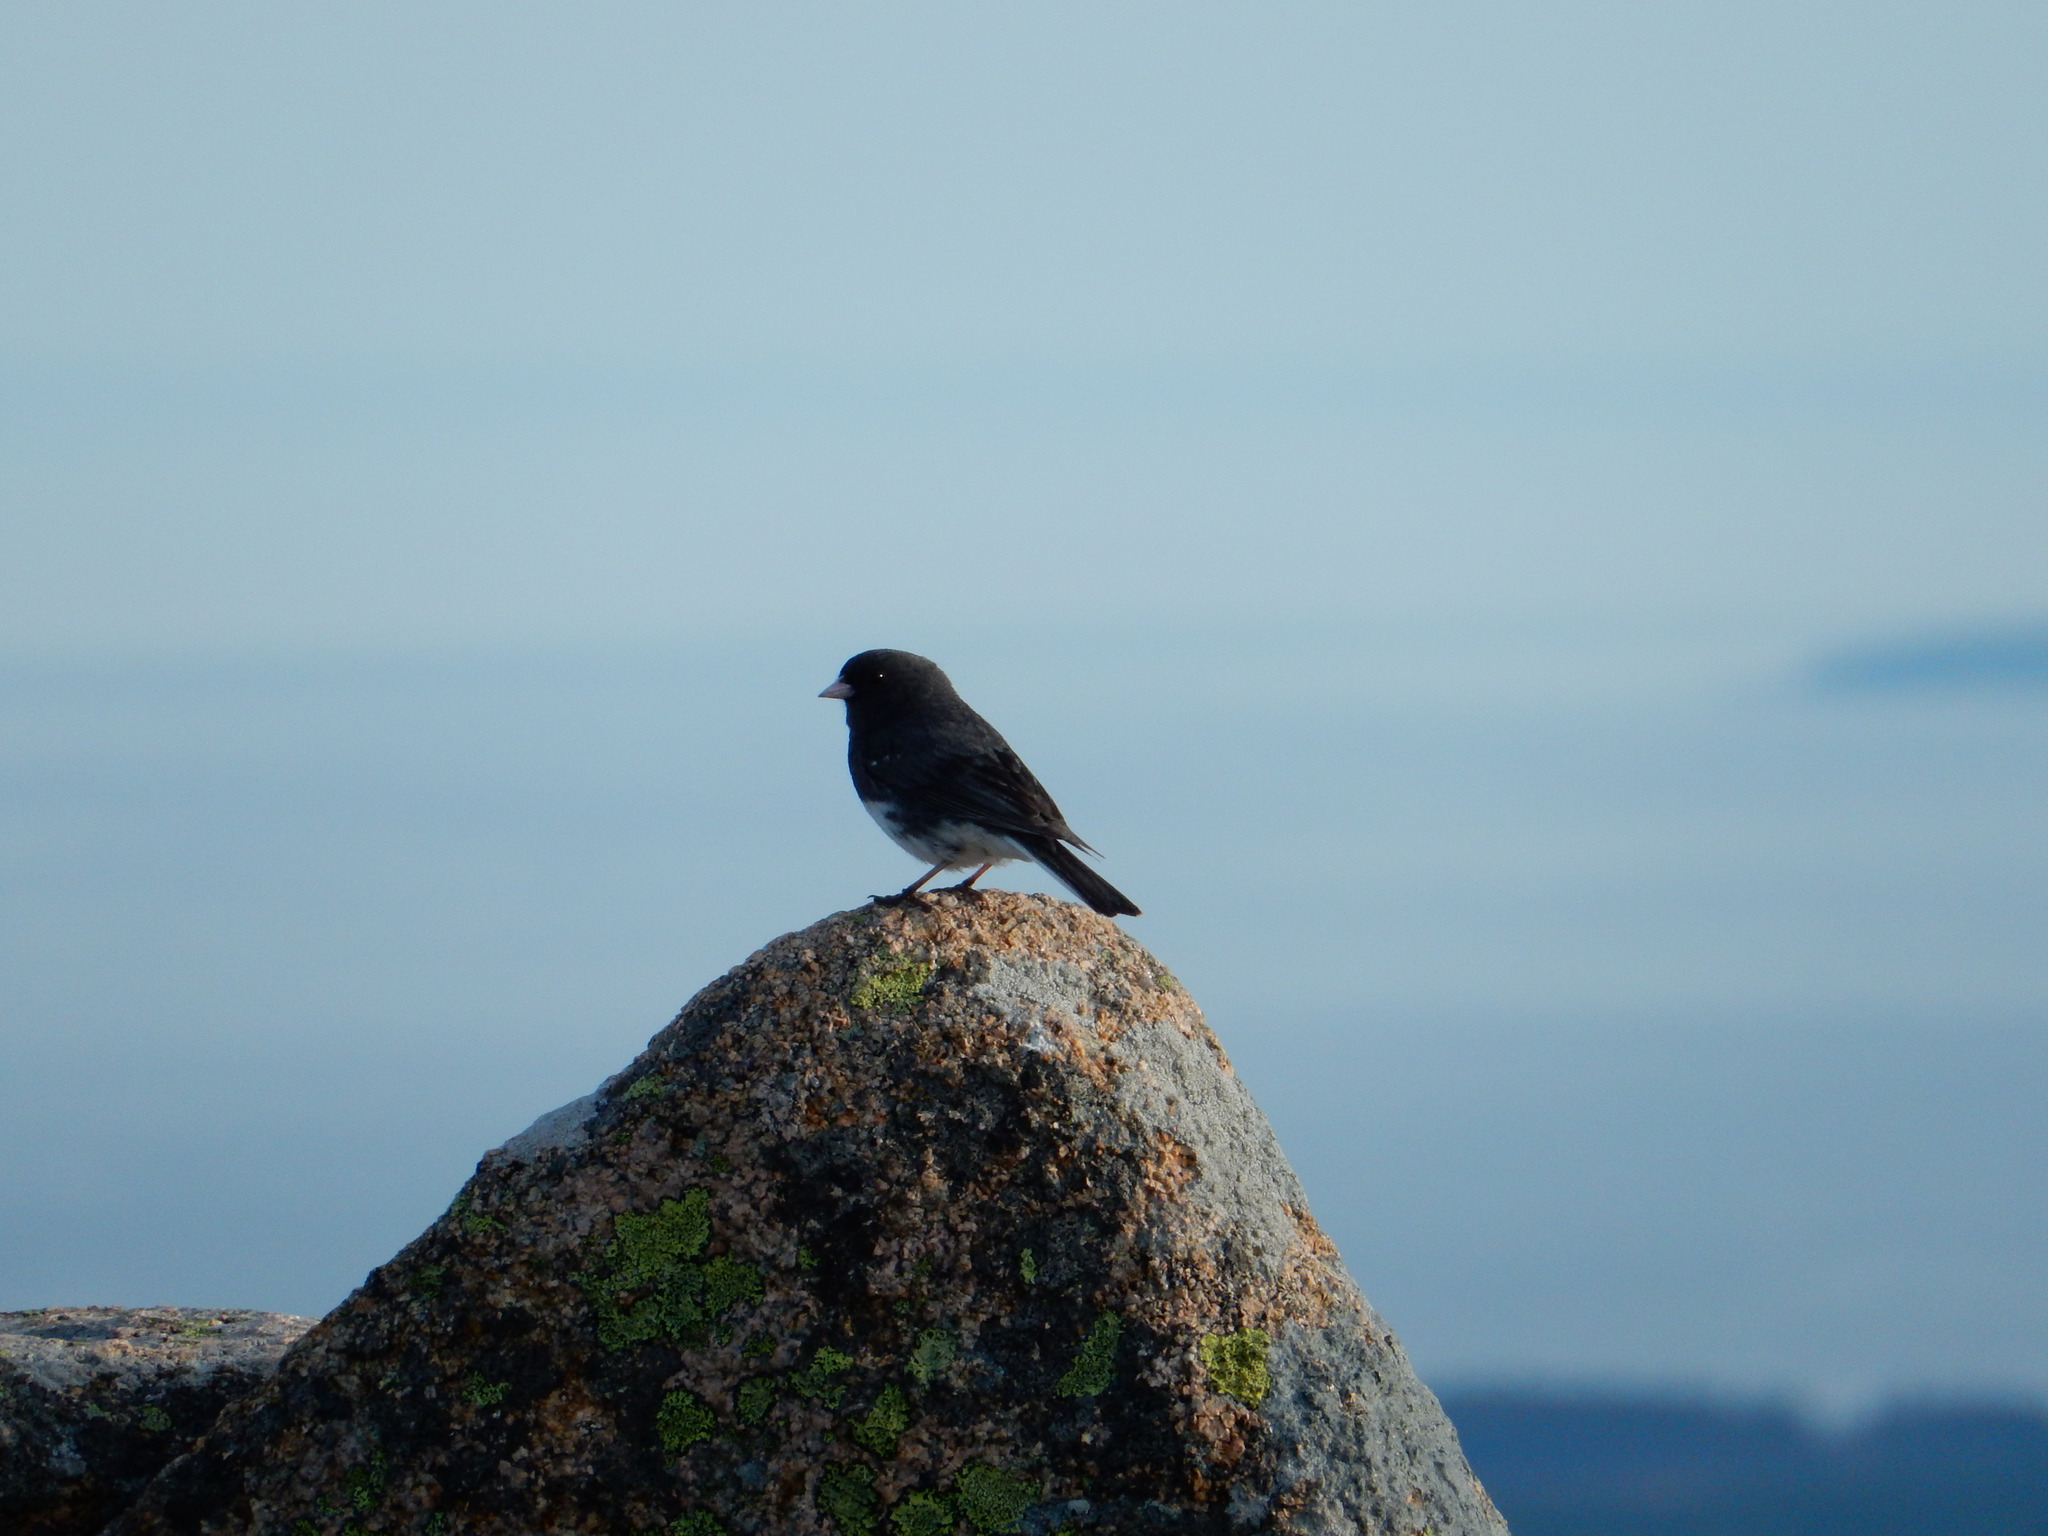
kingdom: Animalia
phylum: Chordata
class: Aves
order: Passeriformes
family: Passerellidae
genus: Junco
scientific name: Junco hyemalis
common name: Dark-eyed junco
